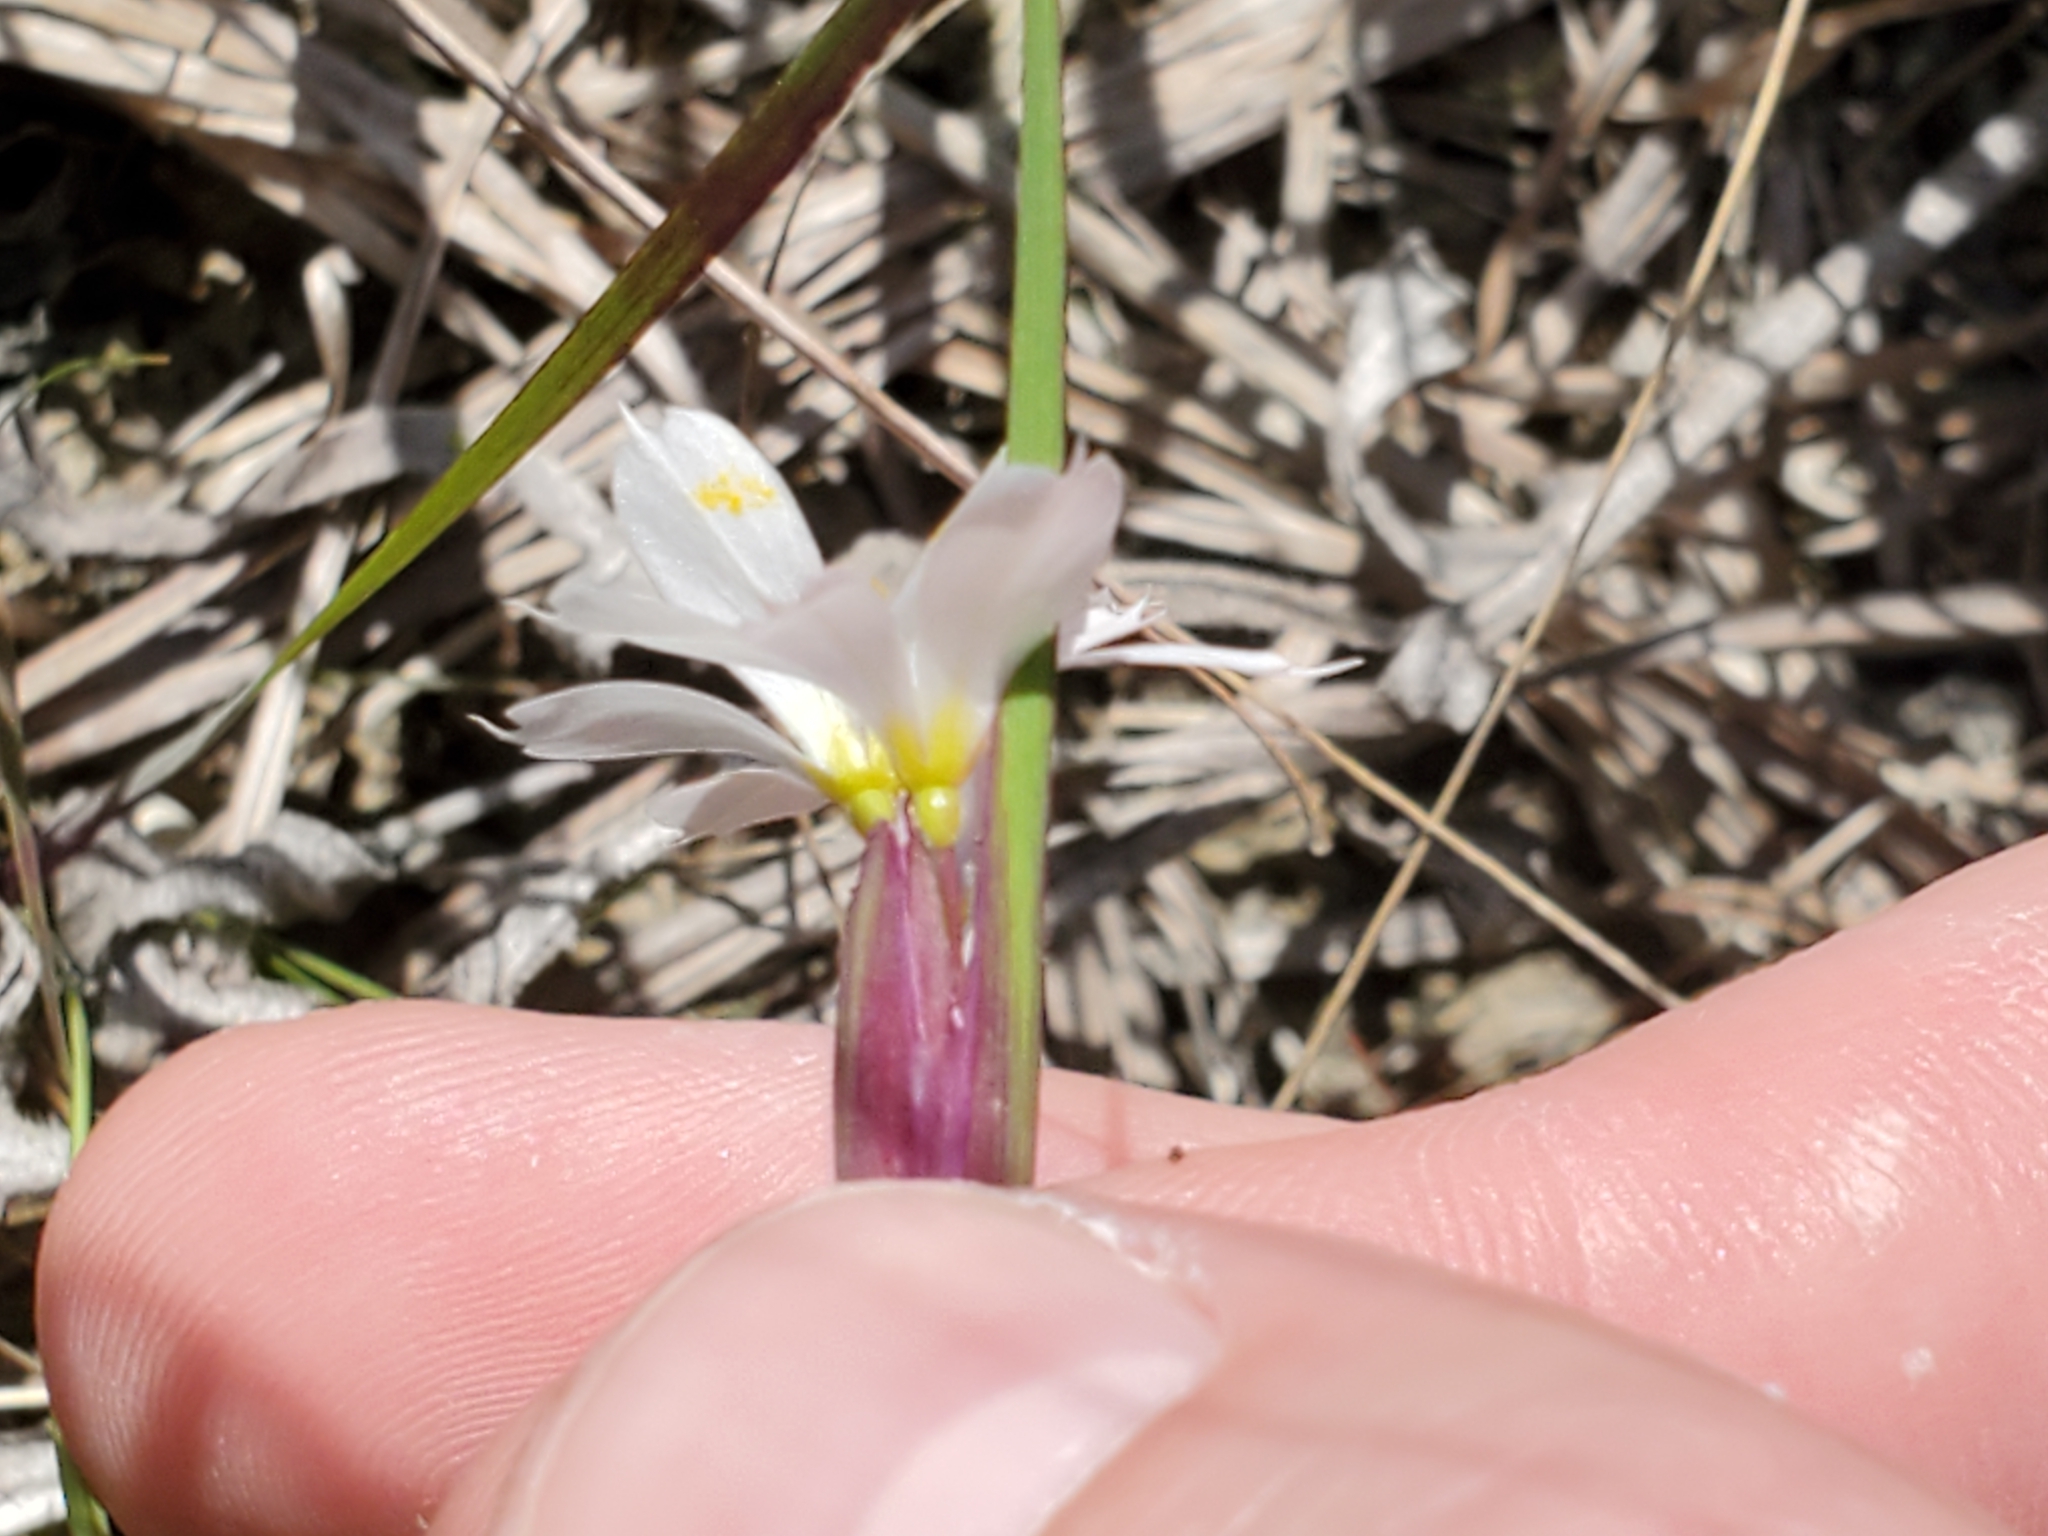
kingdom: Plantae
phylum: Tracheophyta
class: Liliopsida
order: Asparagales
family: Iridaceae
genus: Sisyrinchium
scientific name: Sisyrinchium albidum
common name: Pale blue-eyed-grass
